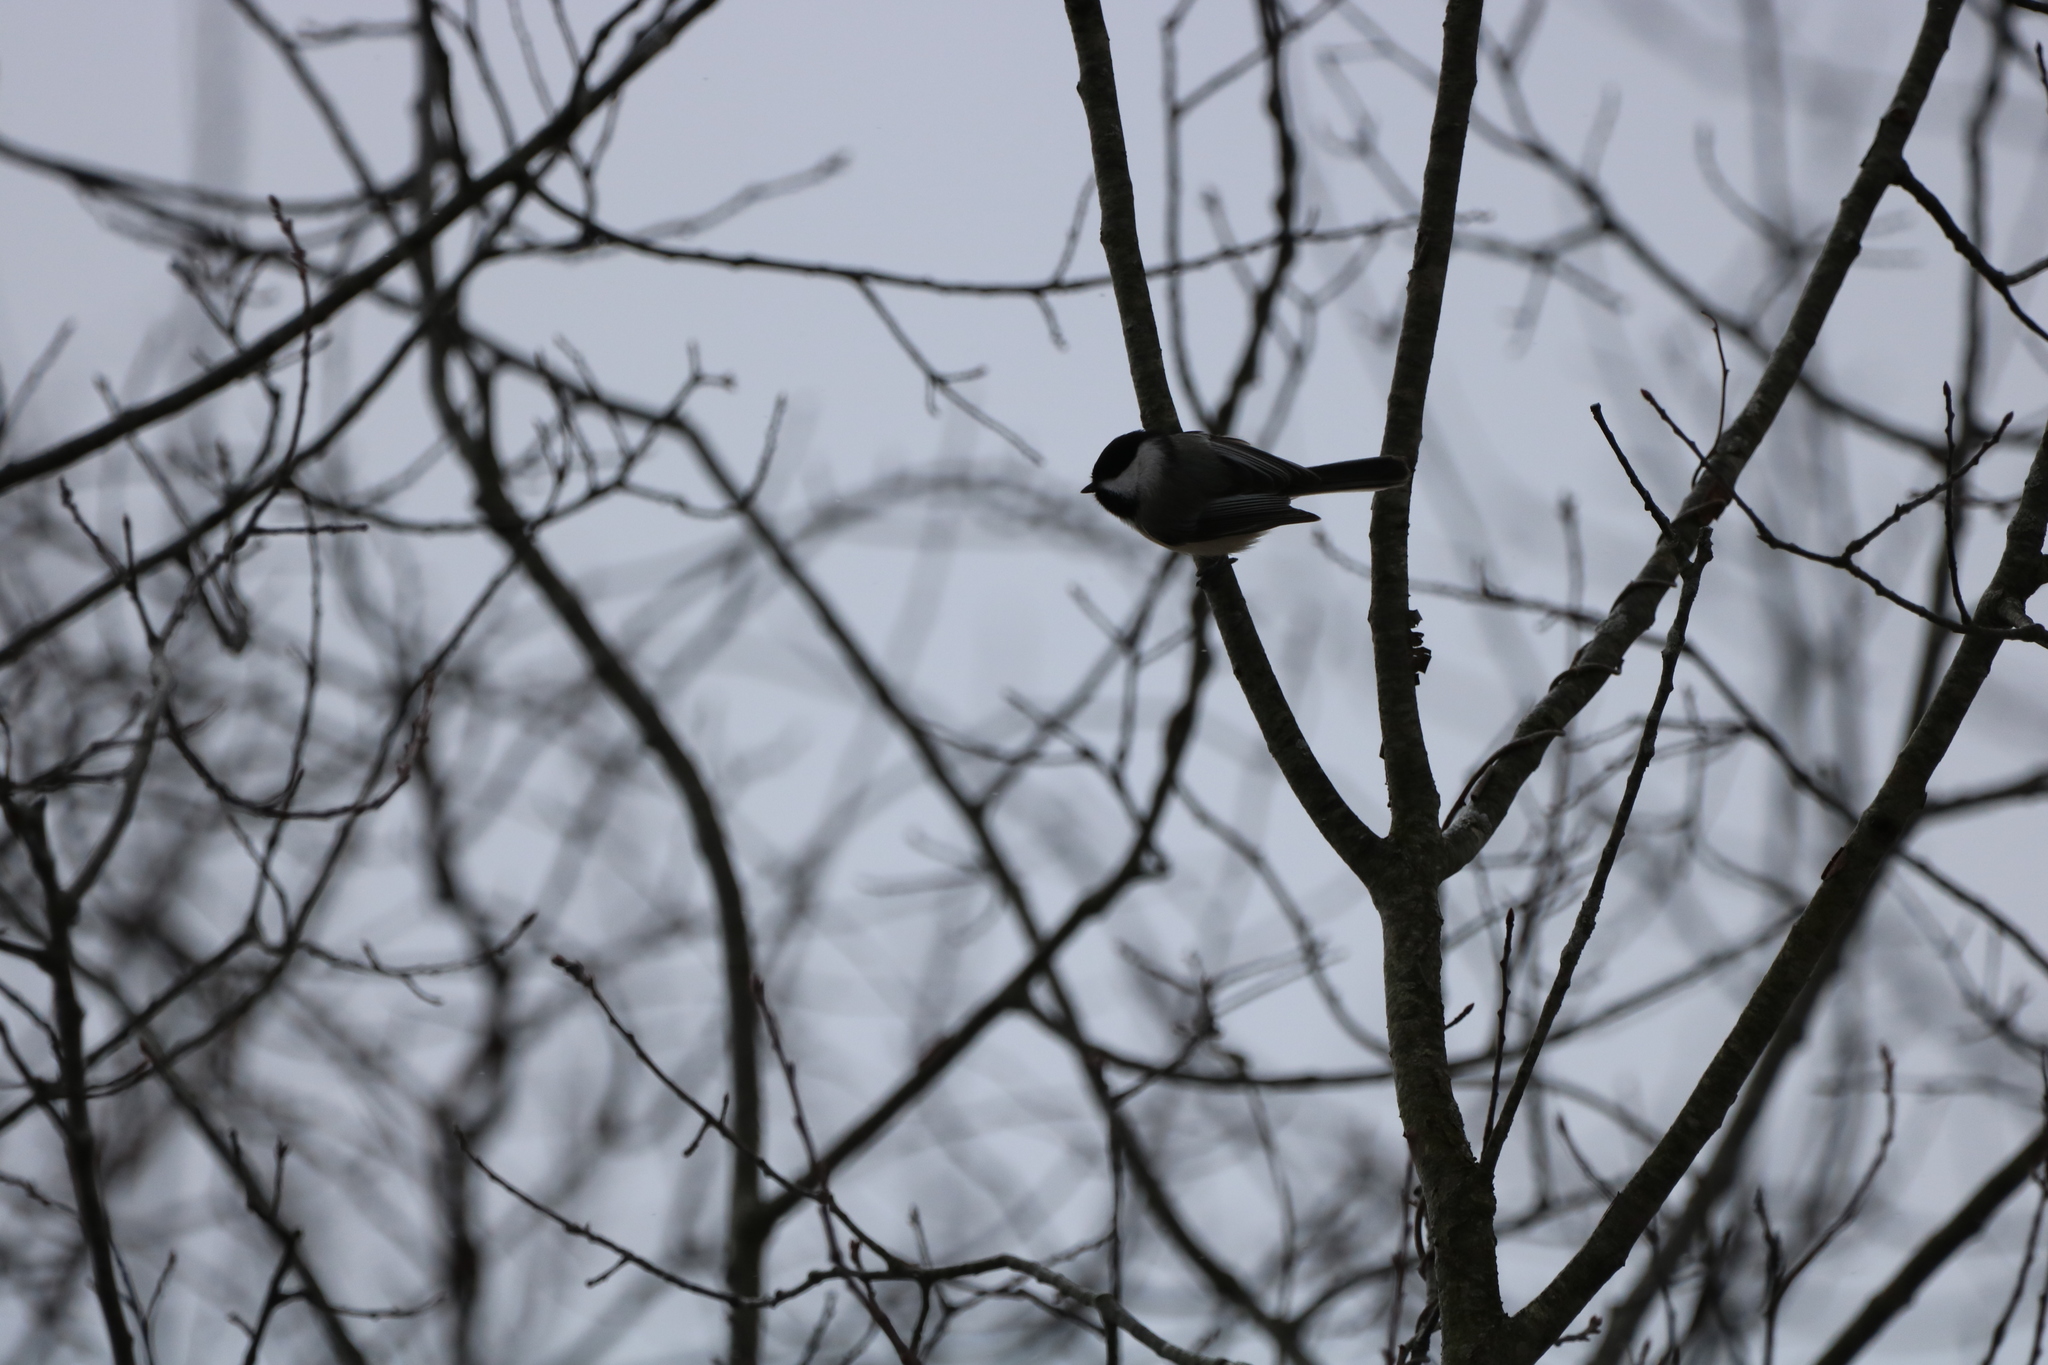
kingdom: Animalia
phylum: Chordata
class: Aves
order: Passeriformes
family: Paridae
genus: Poecile
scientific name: Poecile atricapillus
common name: Black-capped chickadee
